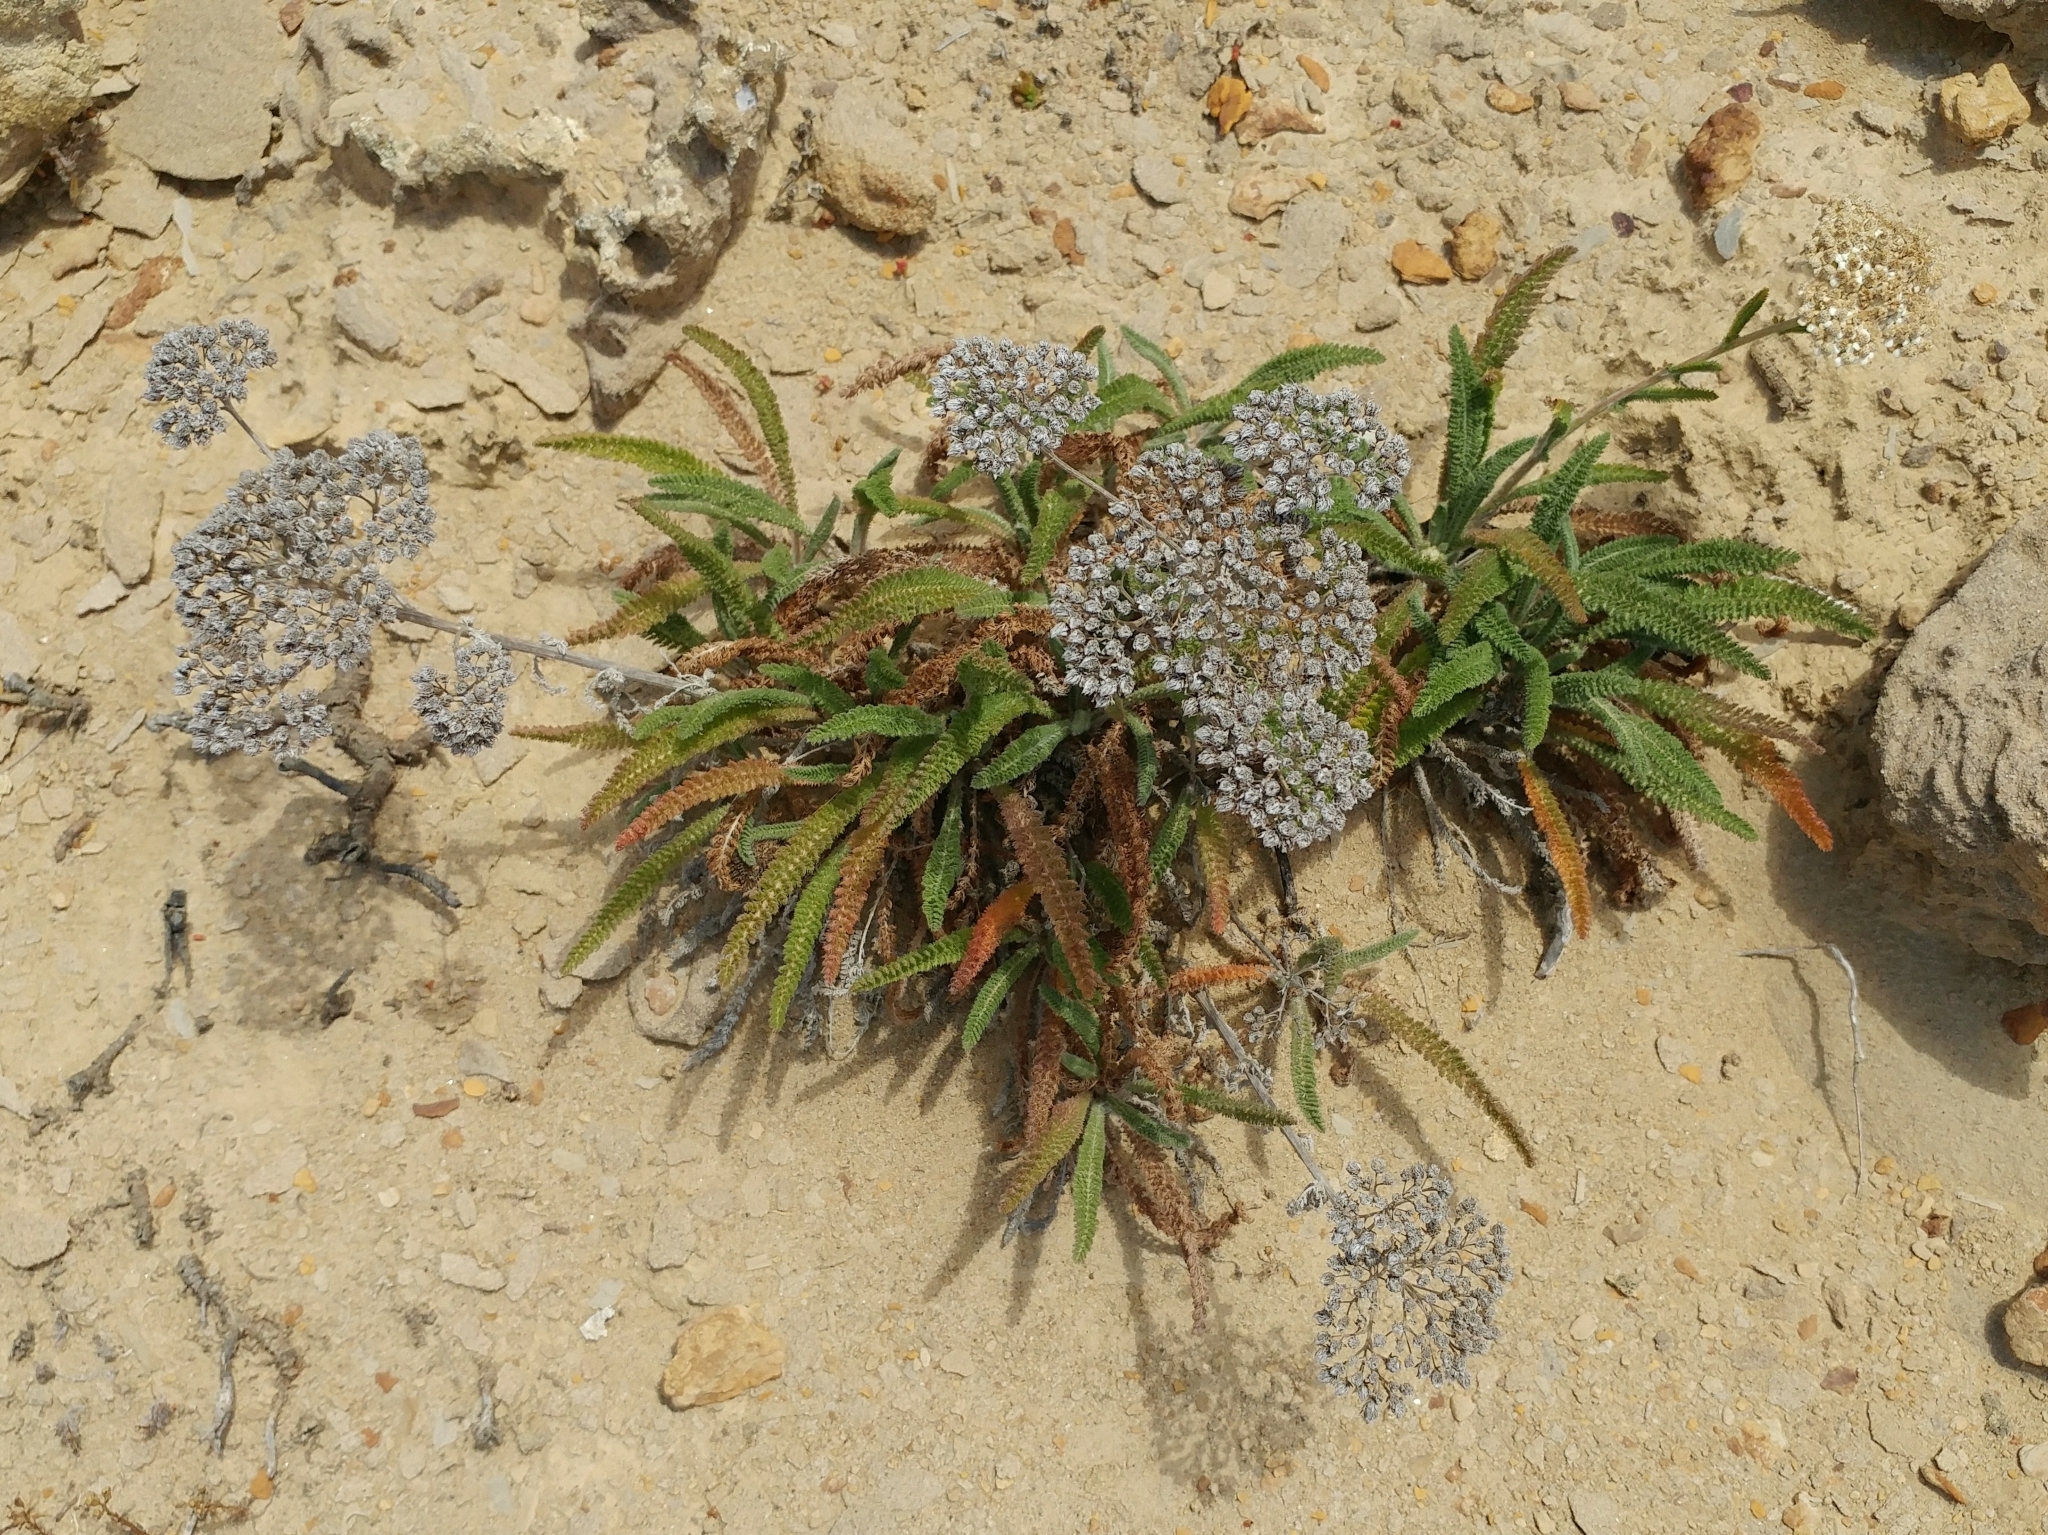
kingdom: Plantae
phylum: Tracheophyta
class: Magnoliopsida
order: Asterales
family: Asteraceae
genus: Achillea
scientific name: Achillea millefolium
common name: Yarrow
